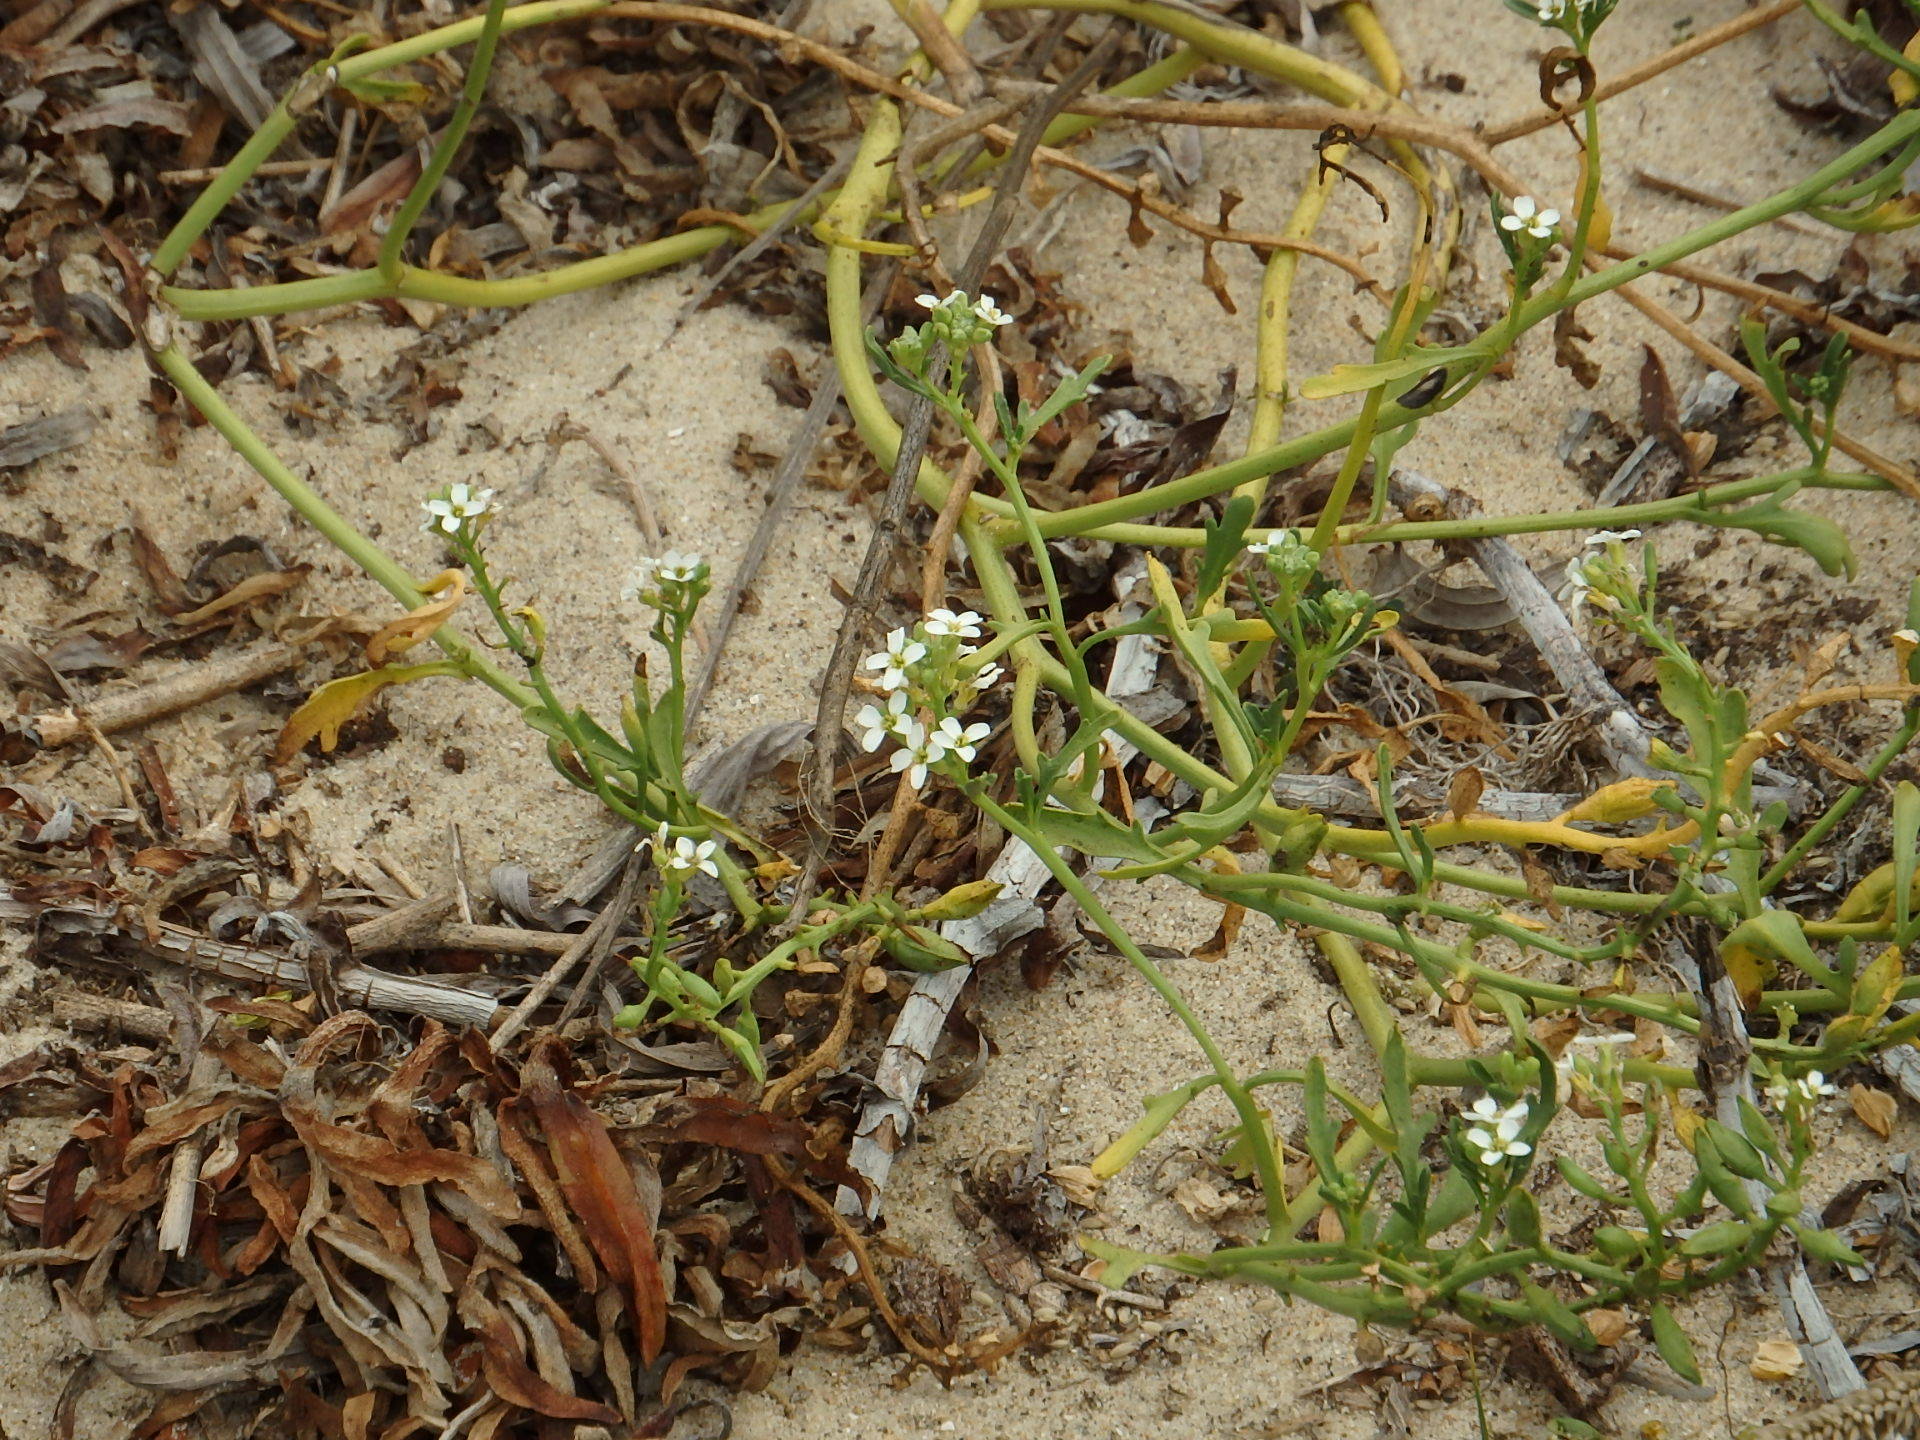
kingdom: Plantae
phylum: Tracheophyta
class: Magnoliopsida
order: Brassicales
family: Brassicaceae
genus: Cakile
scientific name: Cakile maritima
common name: Sea rocket
